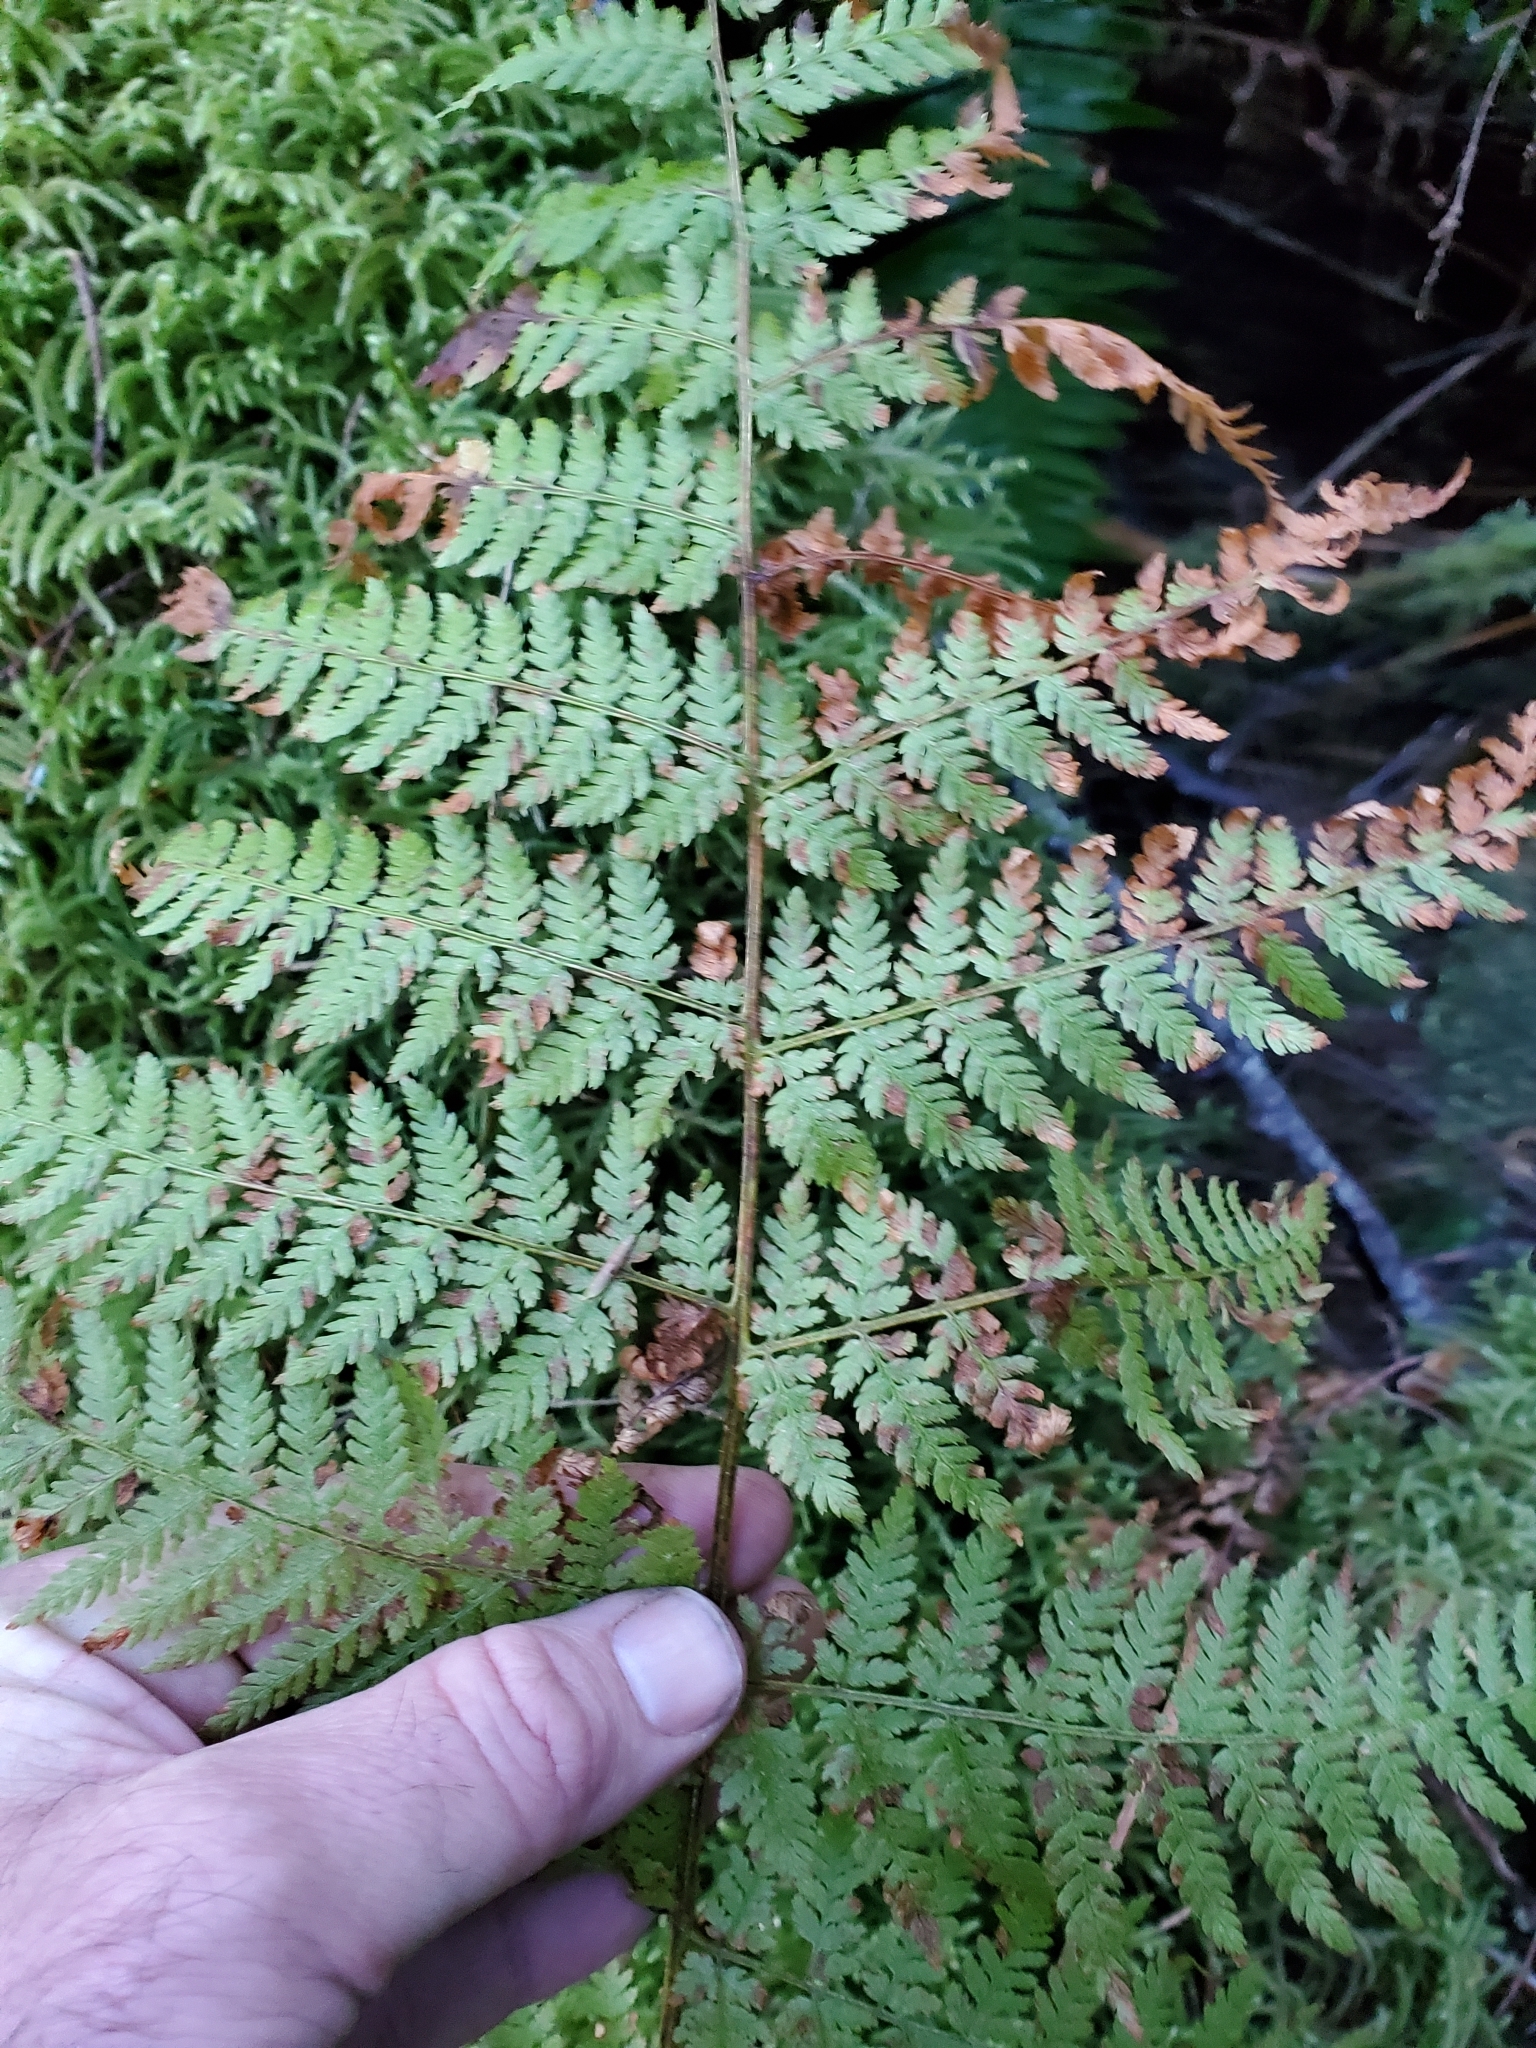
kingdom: Plantae
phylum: Tracheophyta
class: Polypodiopsida
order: Polypodiales
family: Dryopteridaceae
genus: Dryopteris
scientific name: Dryopteris expansa
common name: Northern buckler fern
